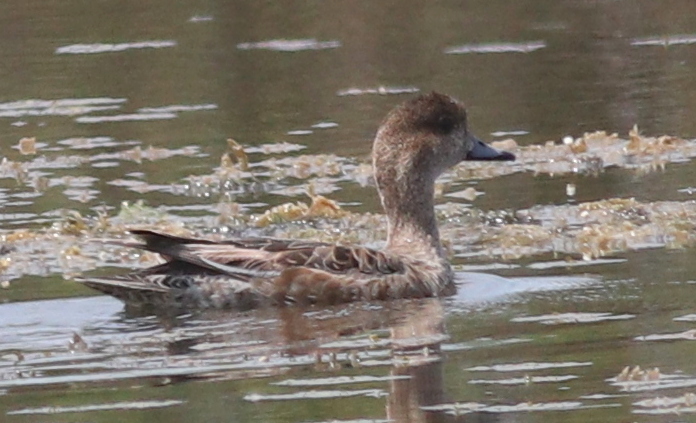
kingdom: Animalia
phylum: Chordata
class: Aves
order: Anseriformes
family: Anatidae
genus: Mareca
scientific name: Mareca penelope
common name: Eurasian wigeon
